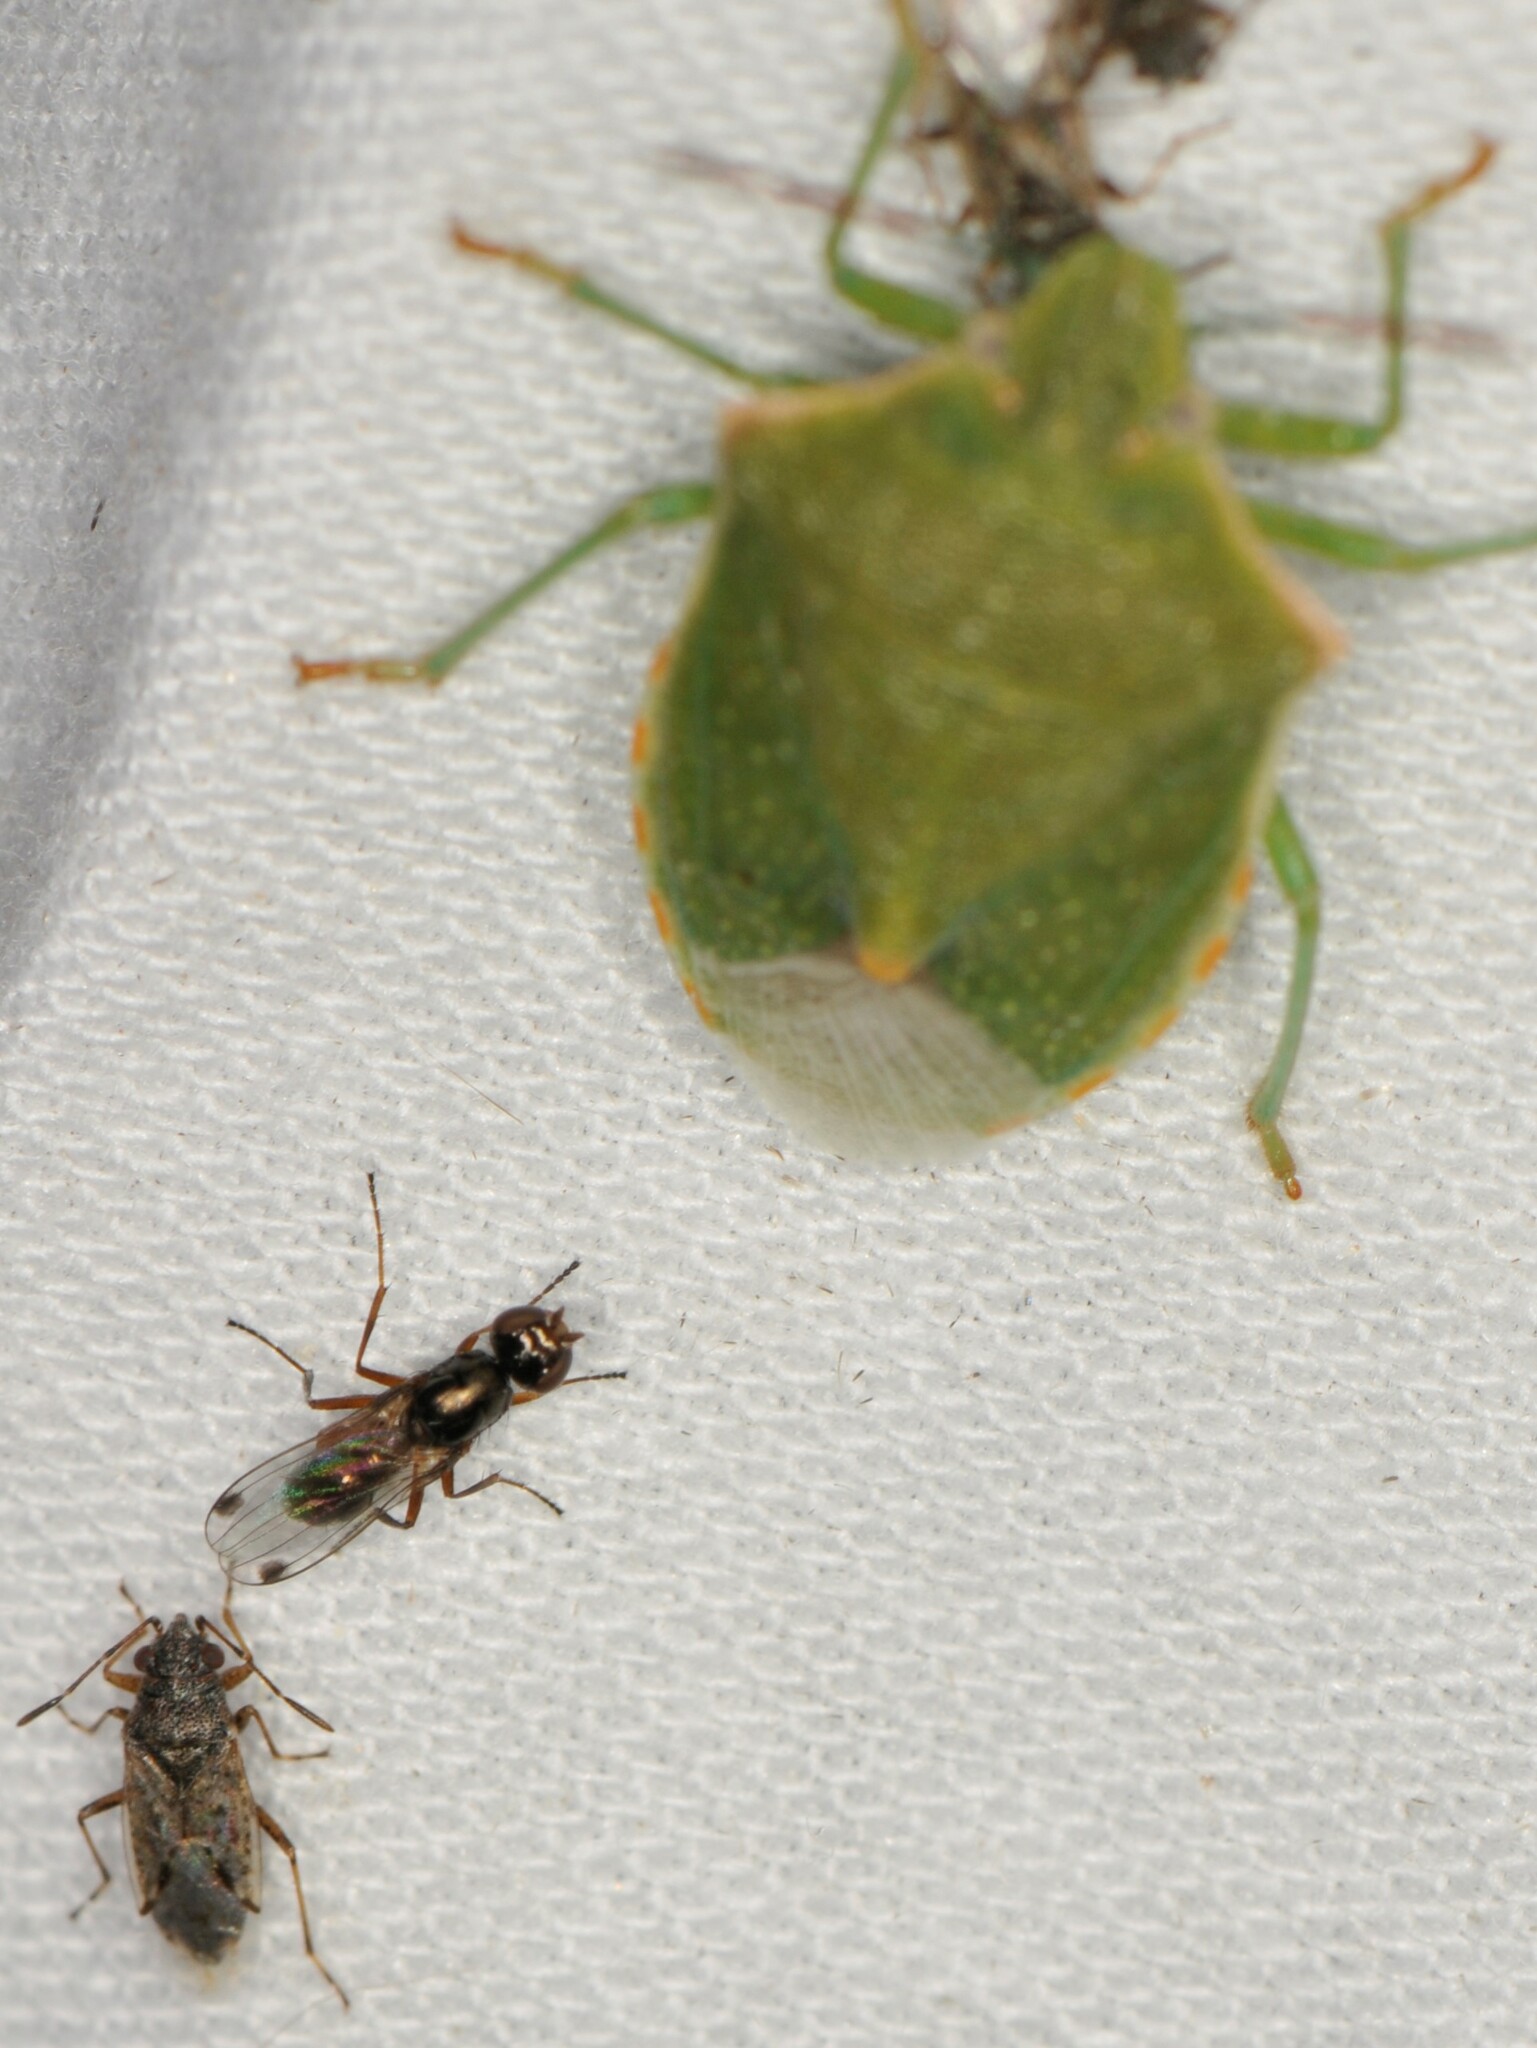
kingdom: Animalia
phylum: Arthropoda
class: Insecta
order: Hemiptera
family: Pentatomidae
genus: Thyanta
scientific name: Thyanta accerra
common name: Stink bug
